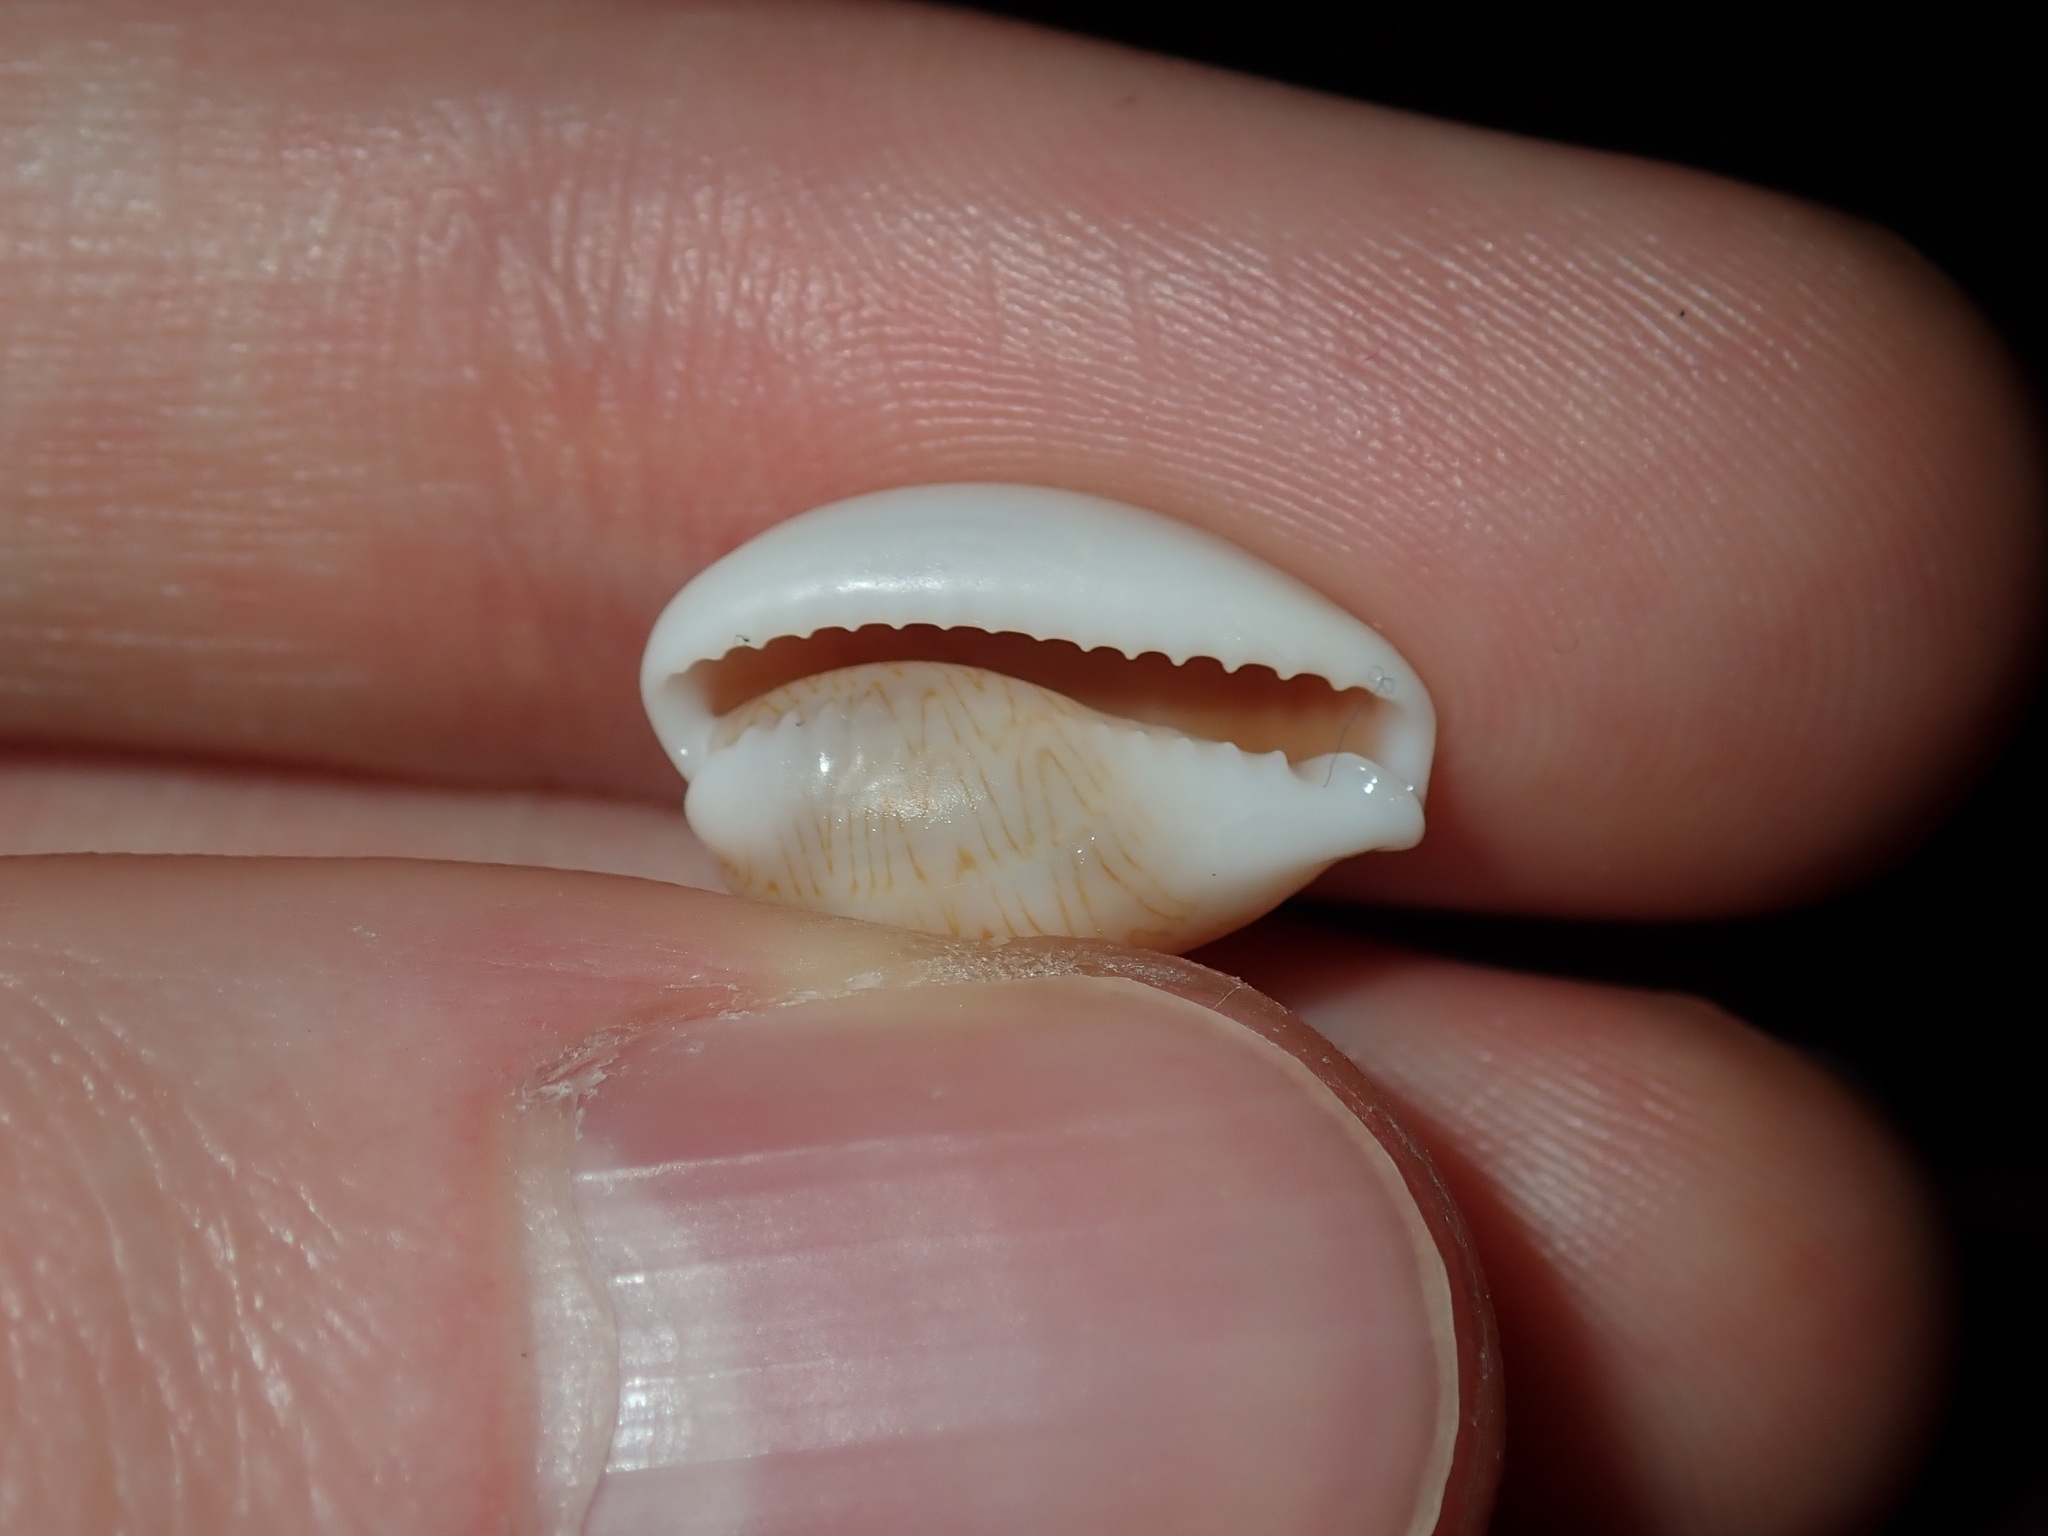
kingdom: Animalia
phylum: Mollusca
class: Gastropoda
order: Littorinimorpha
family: Cypraeidae
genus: Palmadusta
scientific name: Palmadusta clandestina
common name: Cowrie
